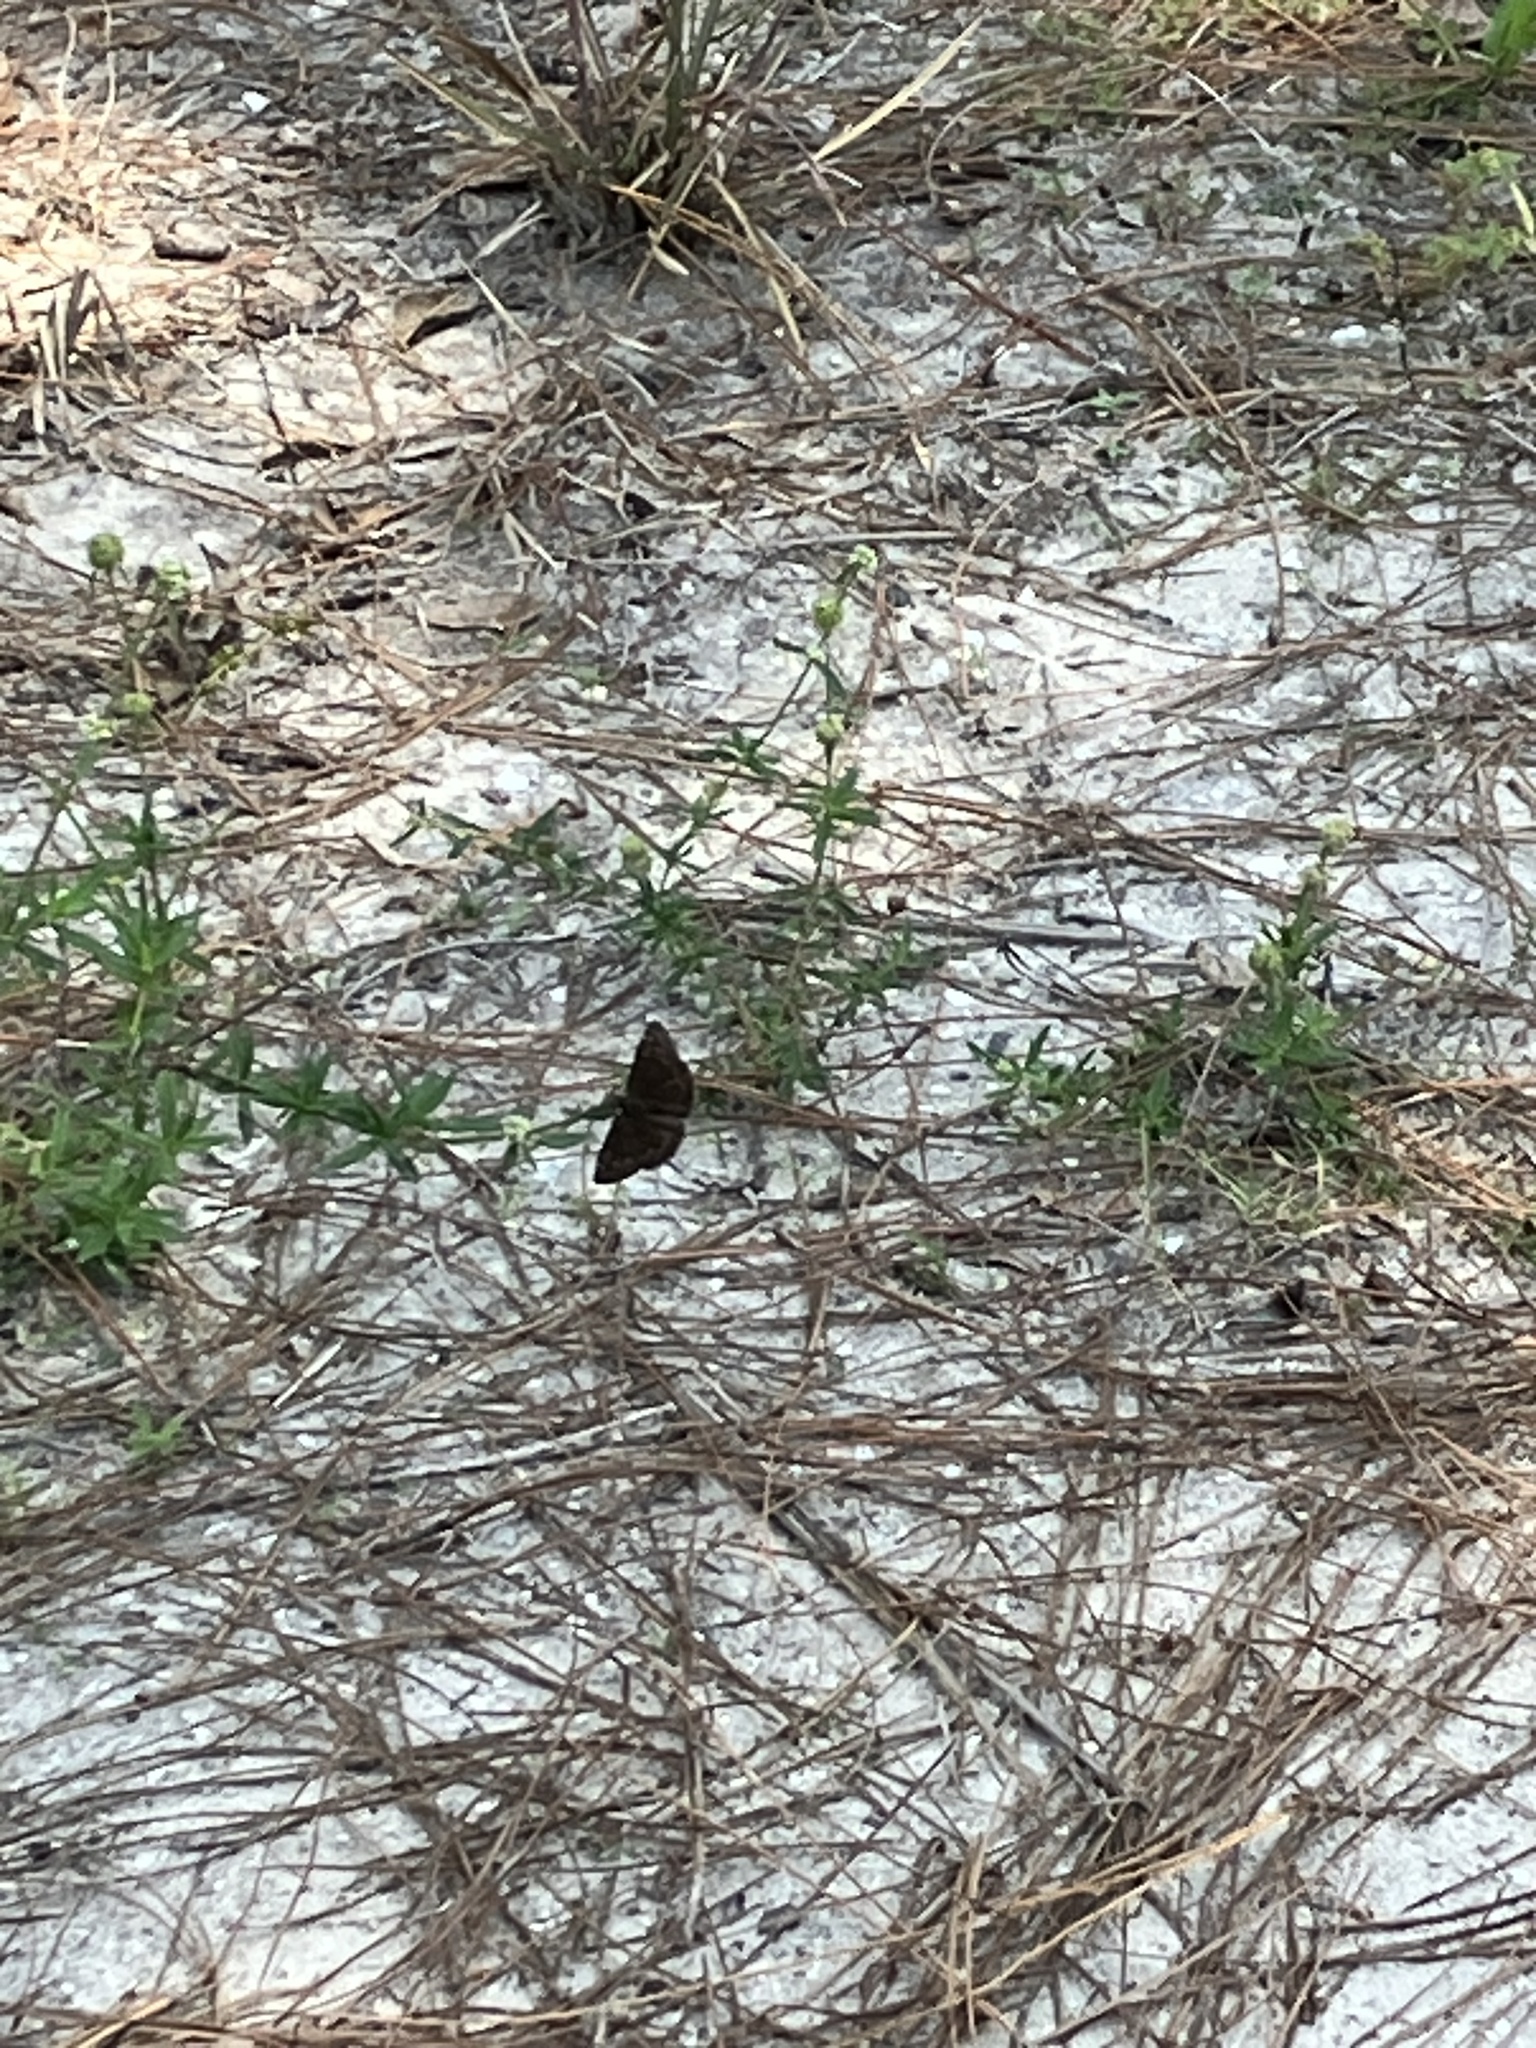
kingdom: Animalia
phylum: Arthropoda
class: Insecta
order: Lepidoptera
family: Hesperiidae
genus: Erynnis
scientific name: Erynnis horatius
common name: Horace's duskywing
